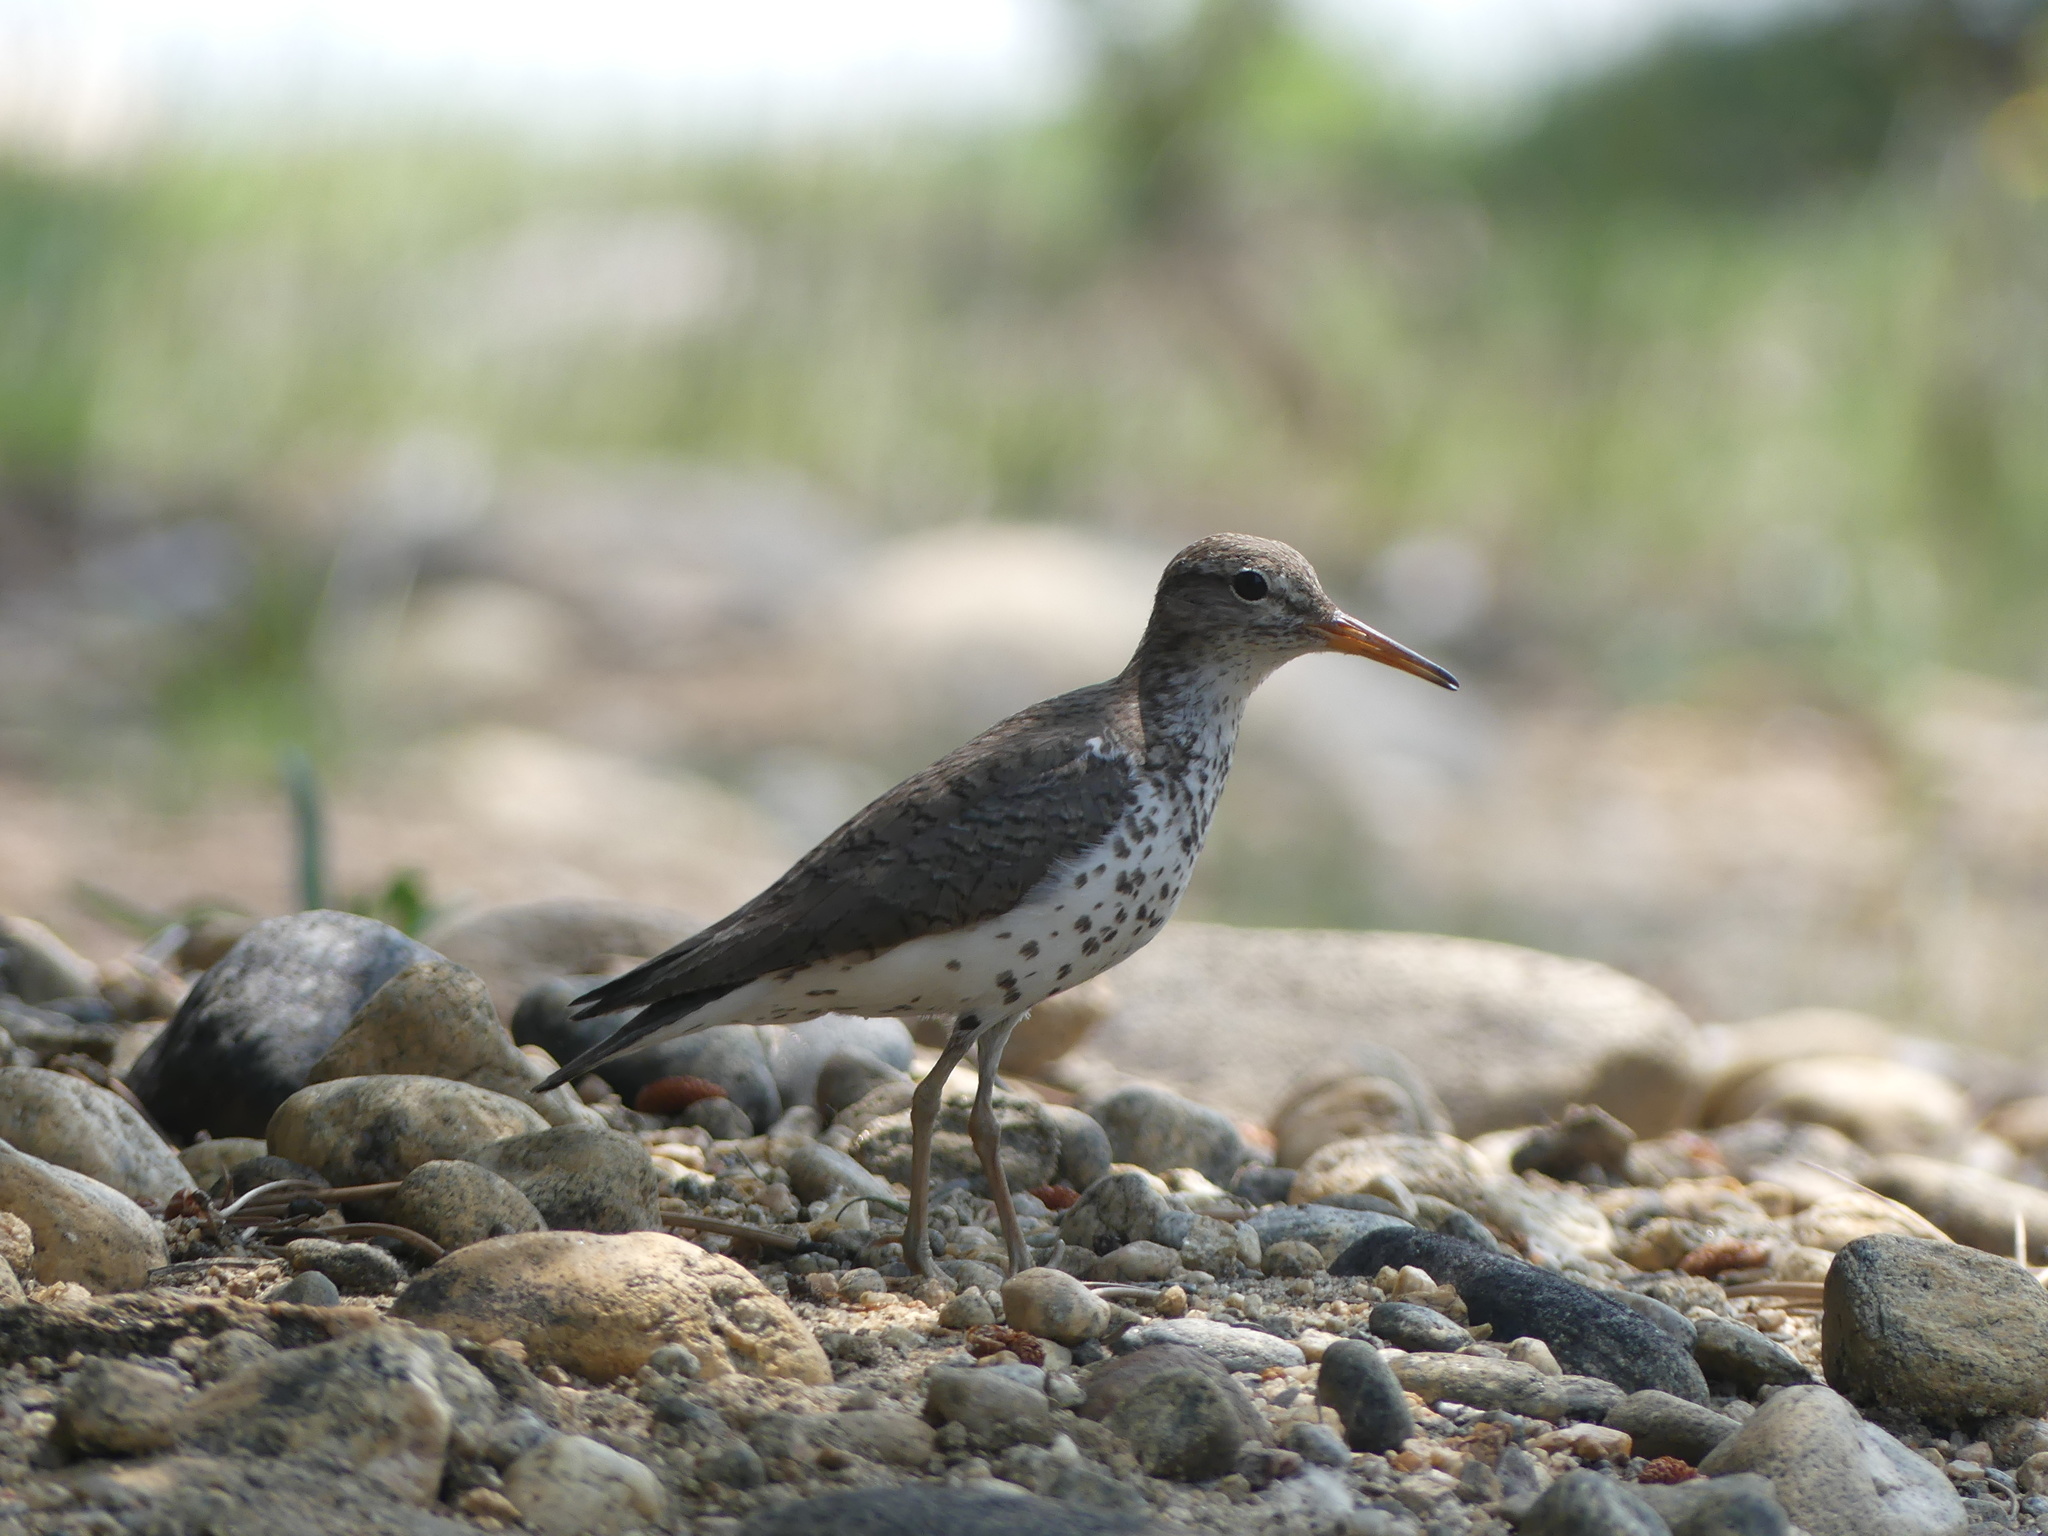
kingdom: Animalia
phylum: Chordata
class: Aves
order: Charadriiformes
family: Scolopacidae
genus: Actitis
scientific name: Actitis macularius
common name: Spotted sandpiper
